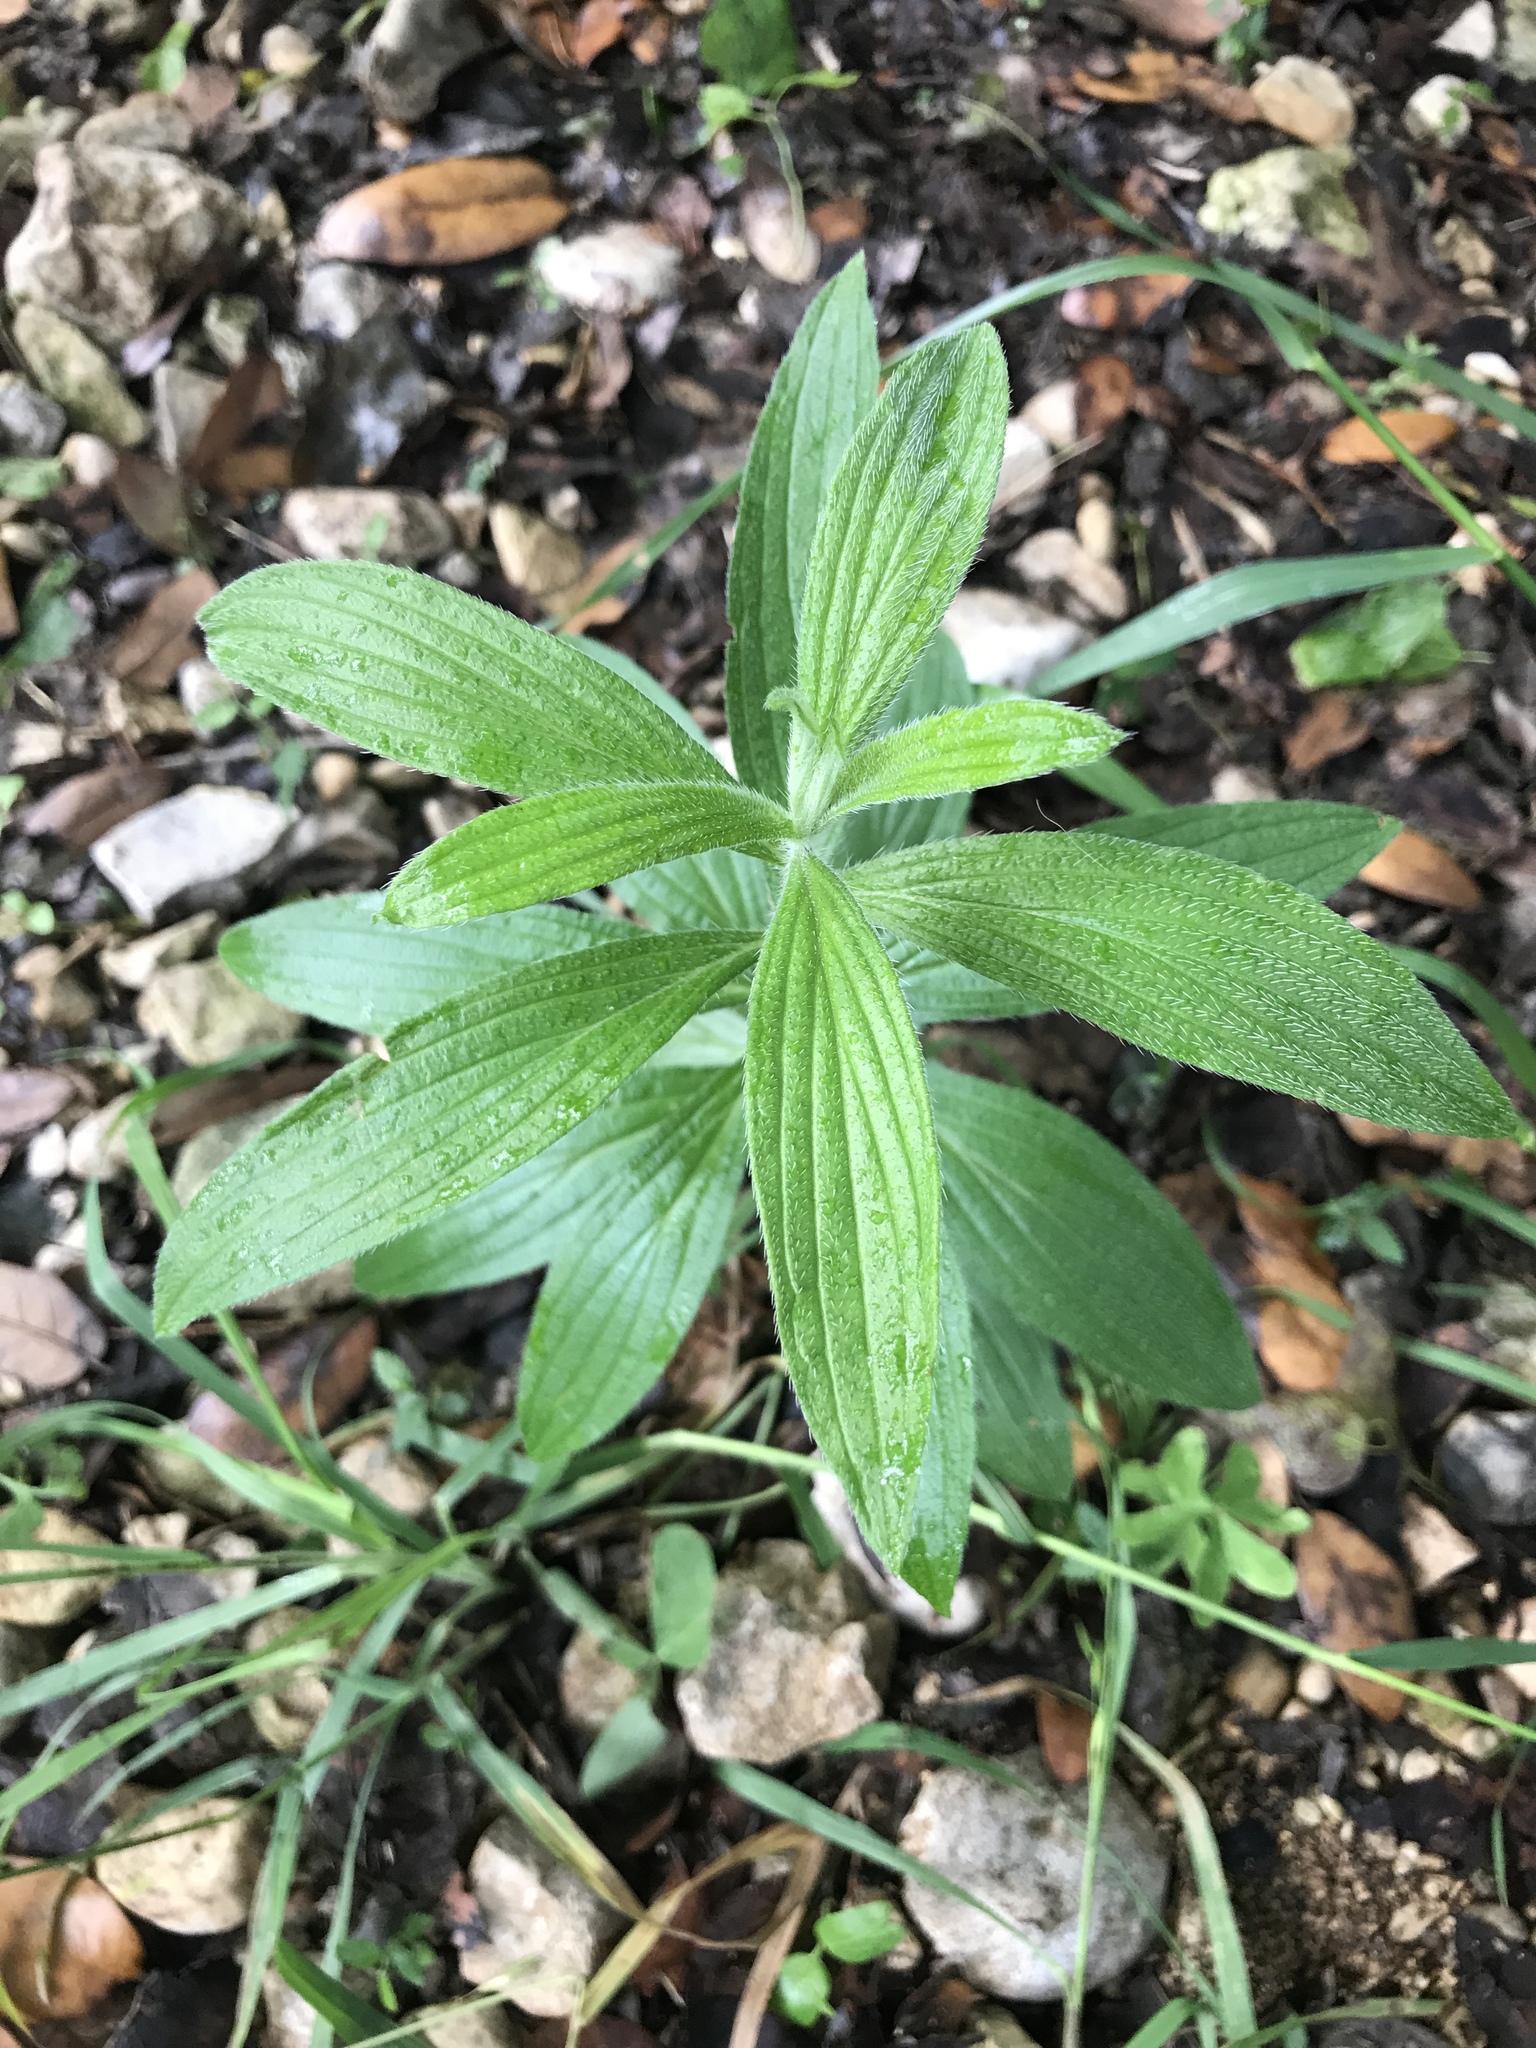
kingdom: Plantae
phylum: Tracheophyta
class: Magnoliopsida
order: Boraginales
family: Boraginaceae
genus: Lithospermum
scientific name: Lithospermum caroliniense
